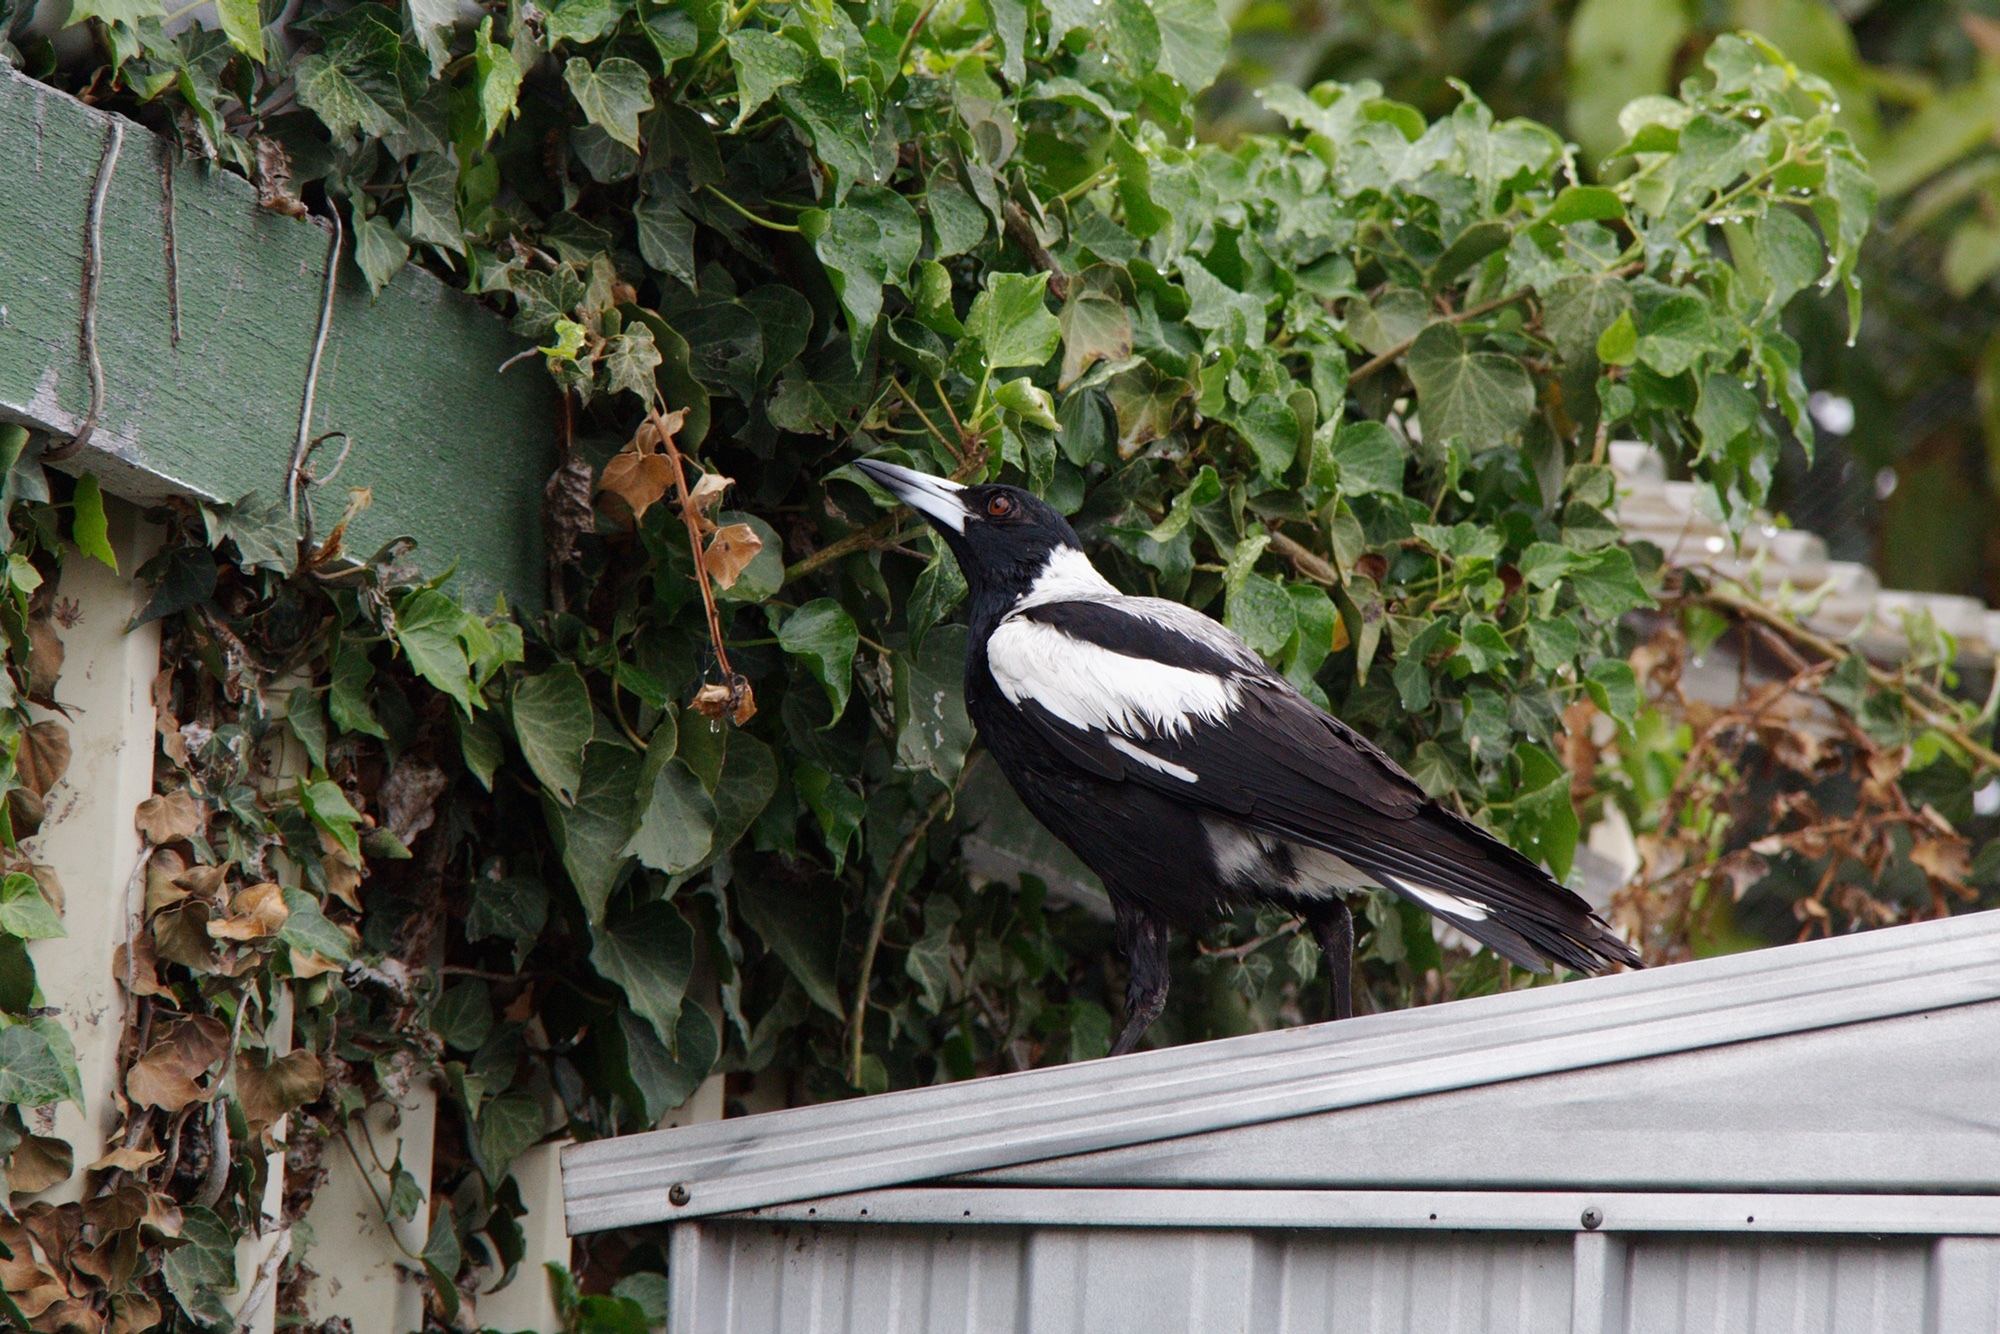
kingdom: Animalia
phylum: Chordata
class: Aves
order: Passeriformes
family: Cracticidae
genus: Gymnorhina
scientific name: Gymnorhina tibicen
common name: Australian magpie
